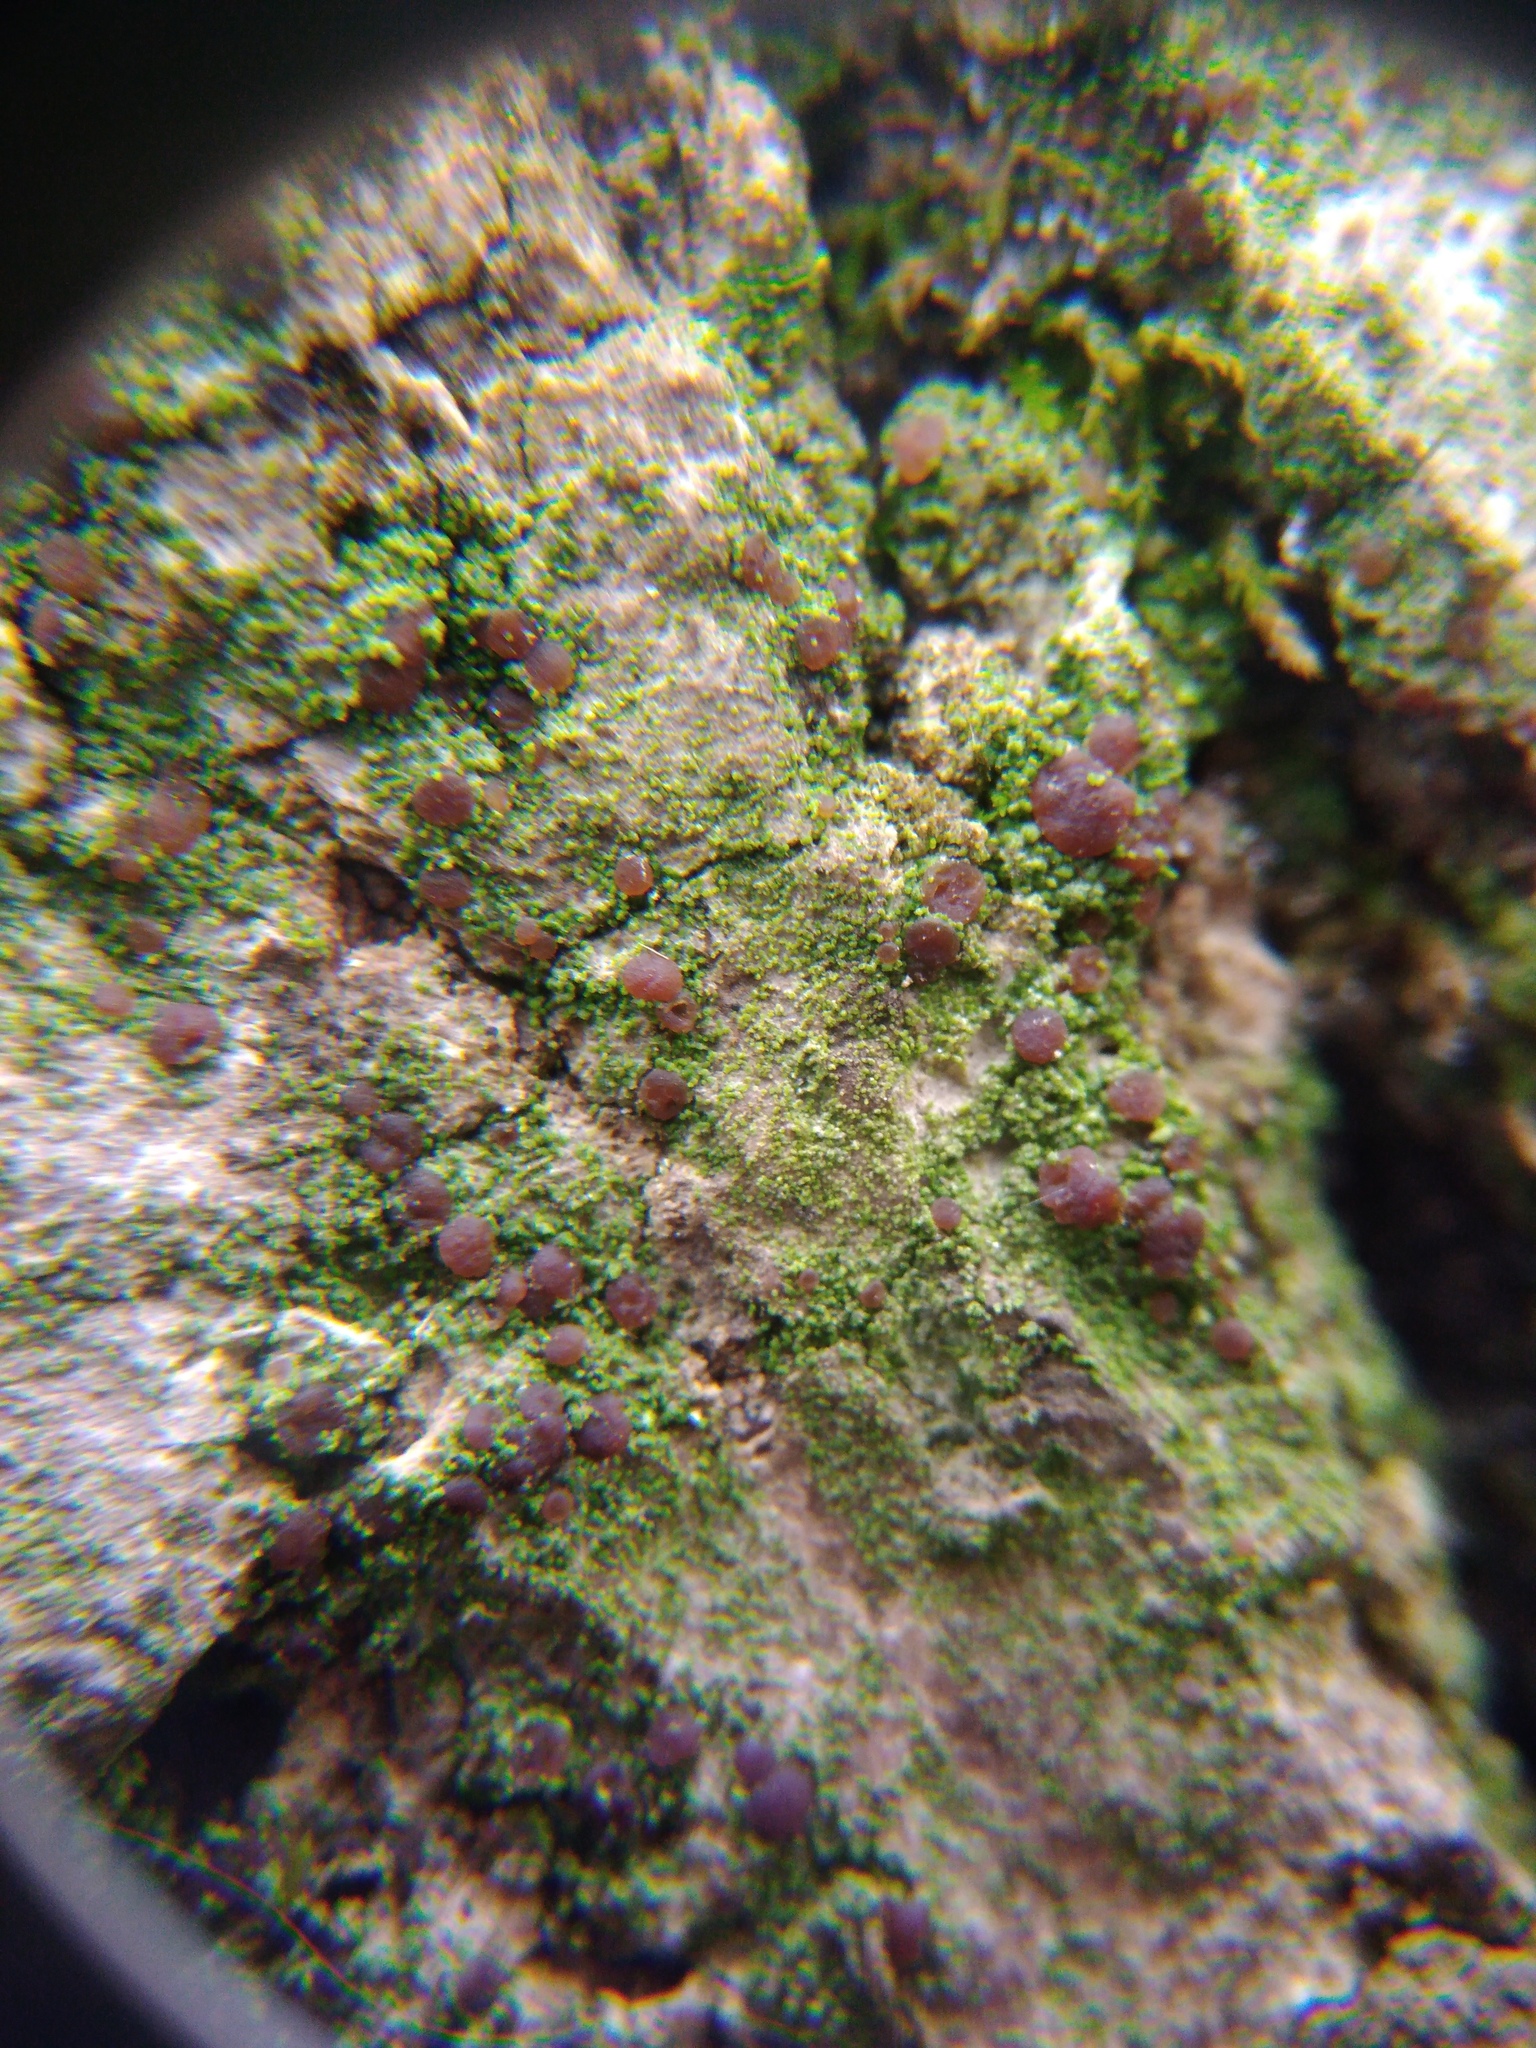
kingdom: Fungi
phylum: Ascomycota
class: Lecanoromycetes
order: Lecanorales
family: Ramalinaceae
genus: Bacidia
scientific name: Bacidia rubella
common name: Frosty-rimmed dot lichen
